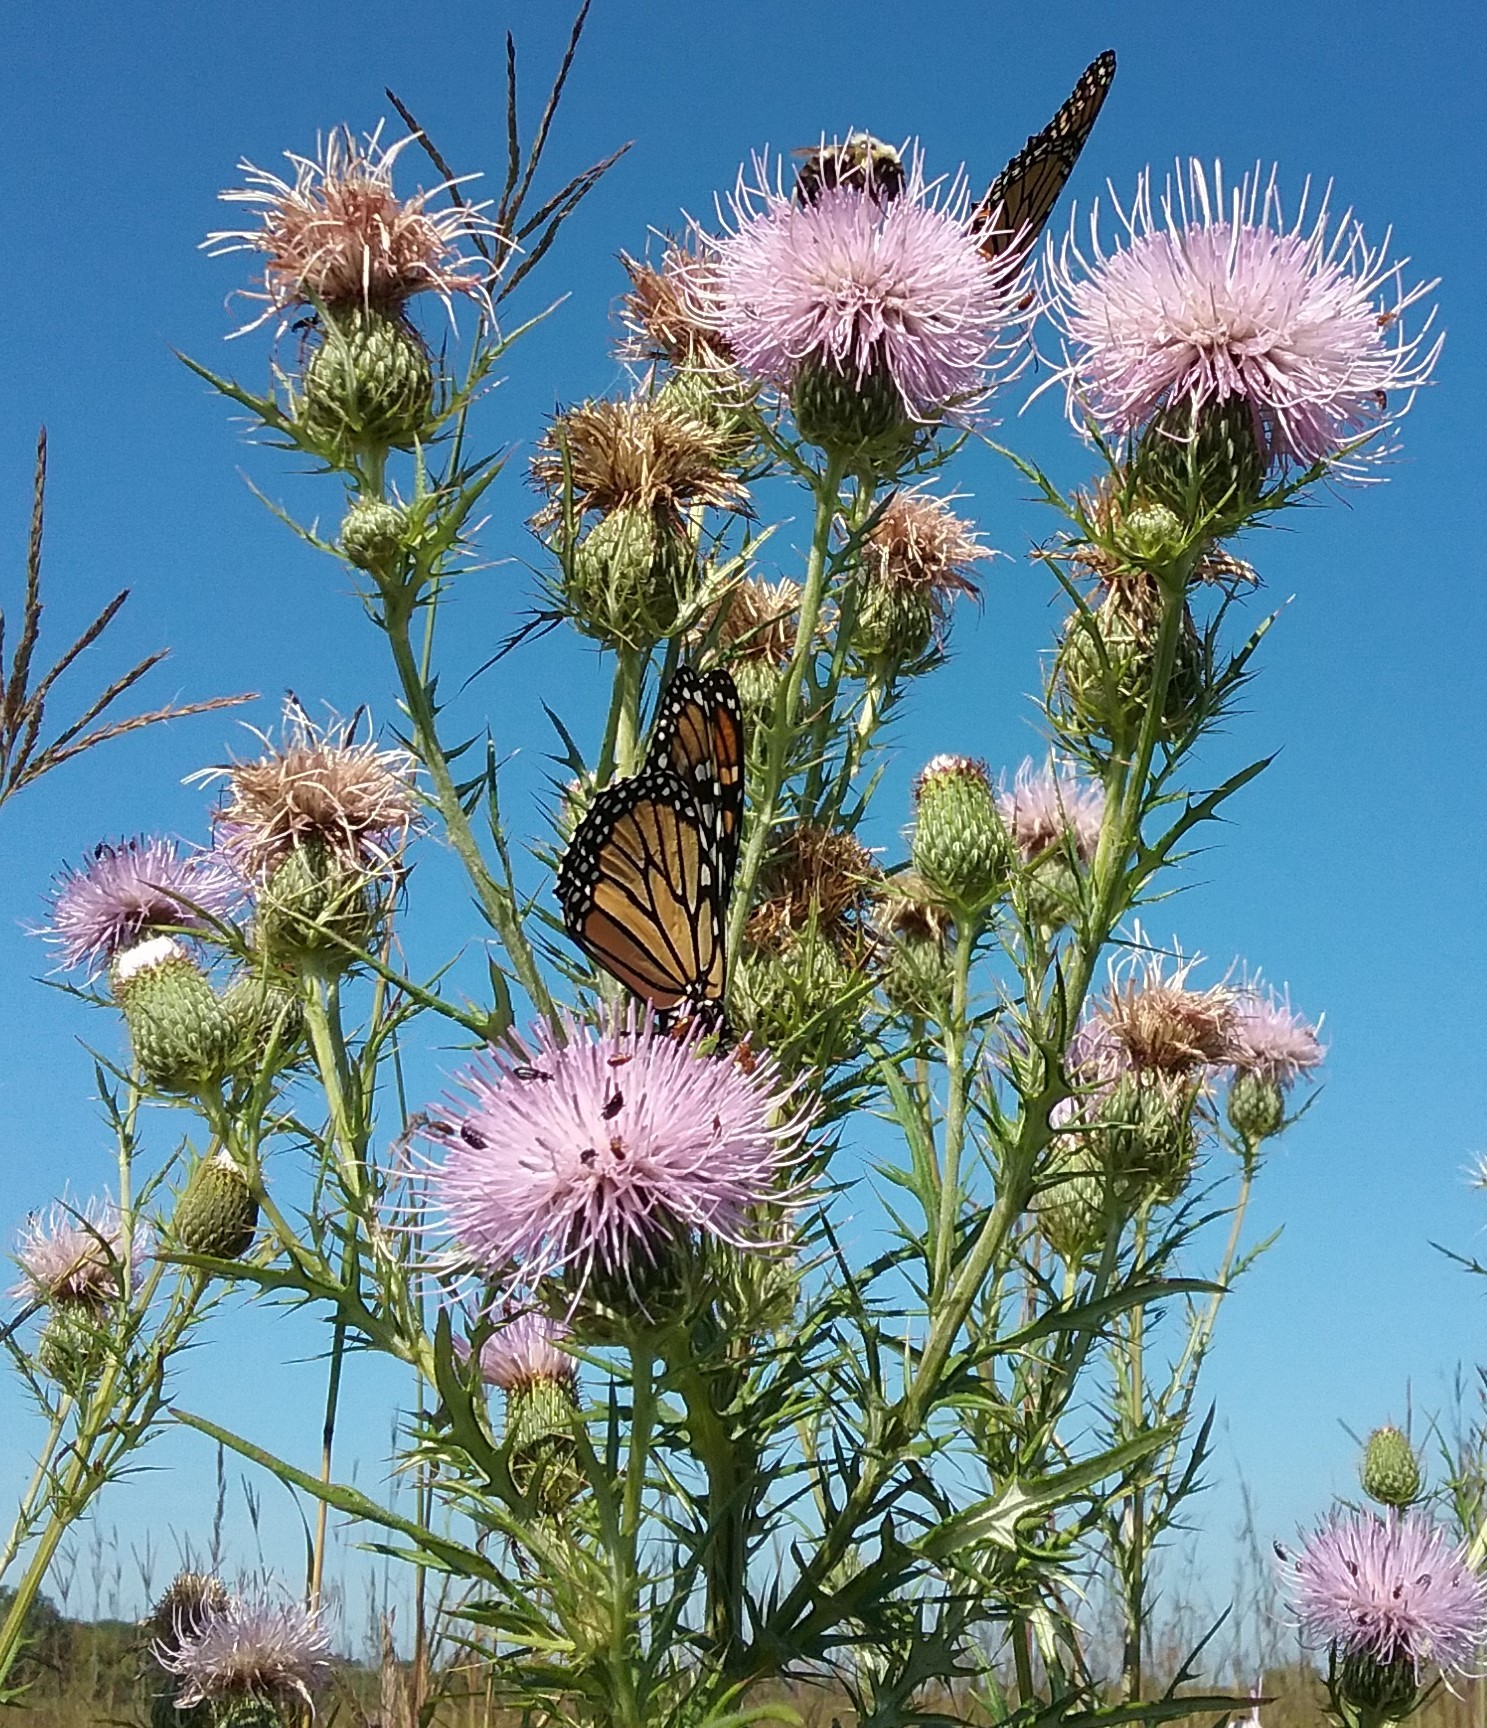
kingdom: Plantae
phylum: Tracheophyta
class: Magnoliopsida
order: Asterales
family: Asteraceae
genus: Cirsium
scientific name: Cirsium discolor
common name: Field thistle
